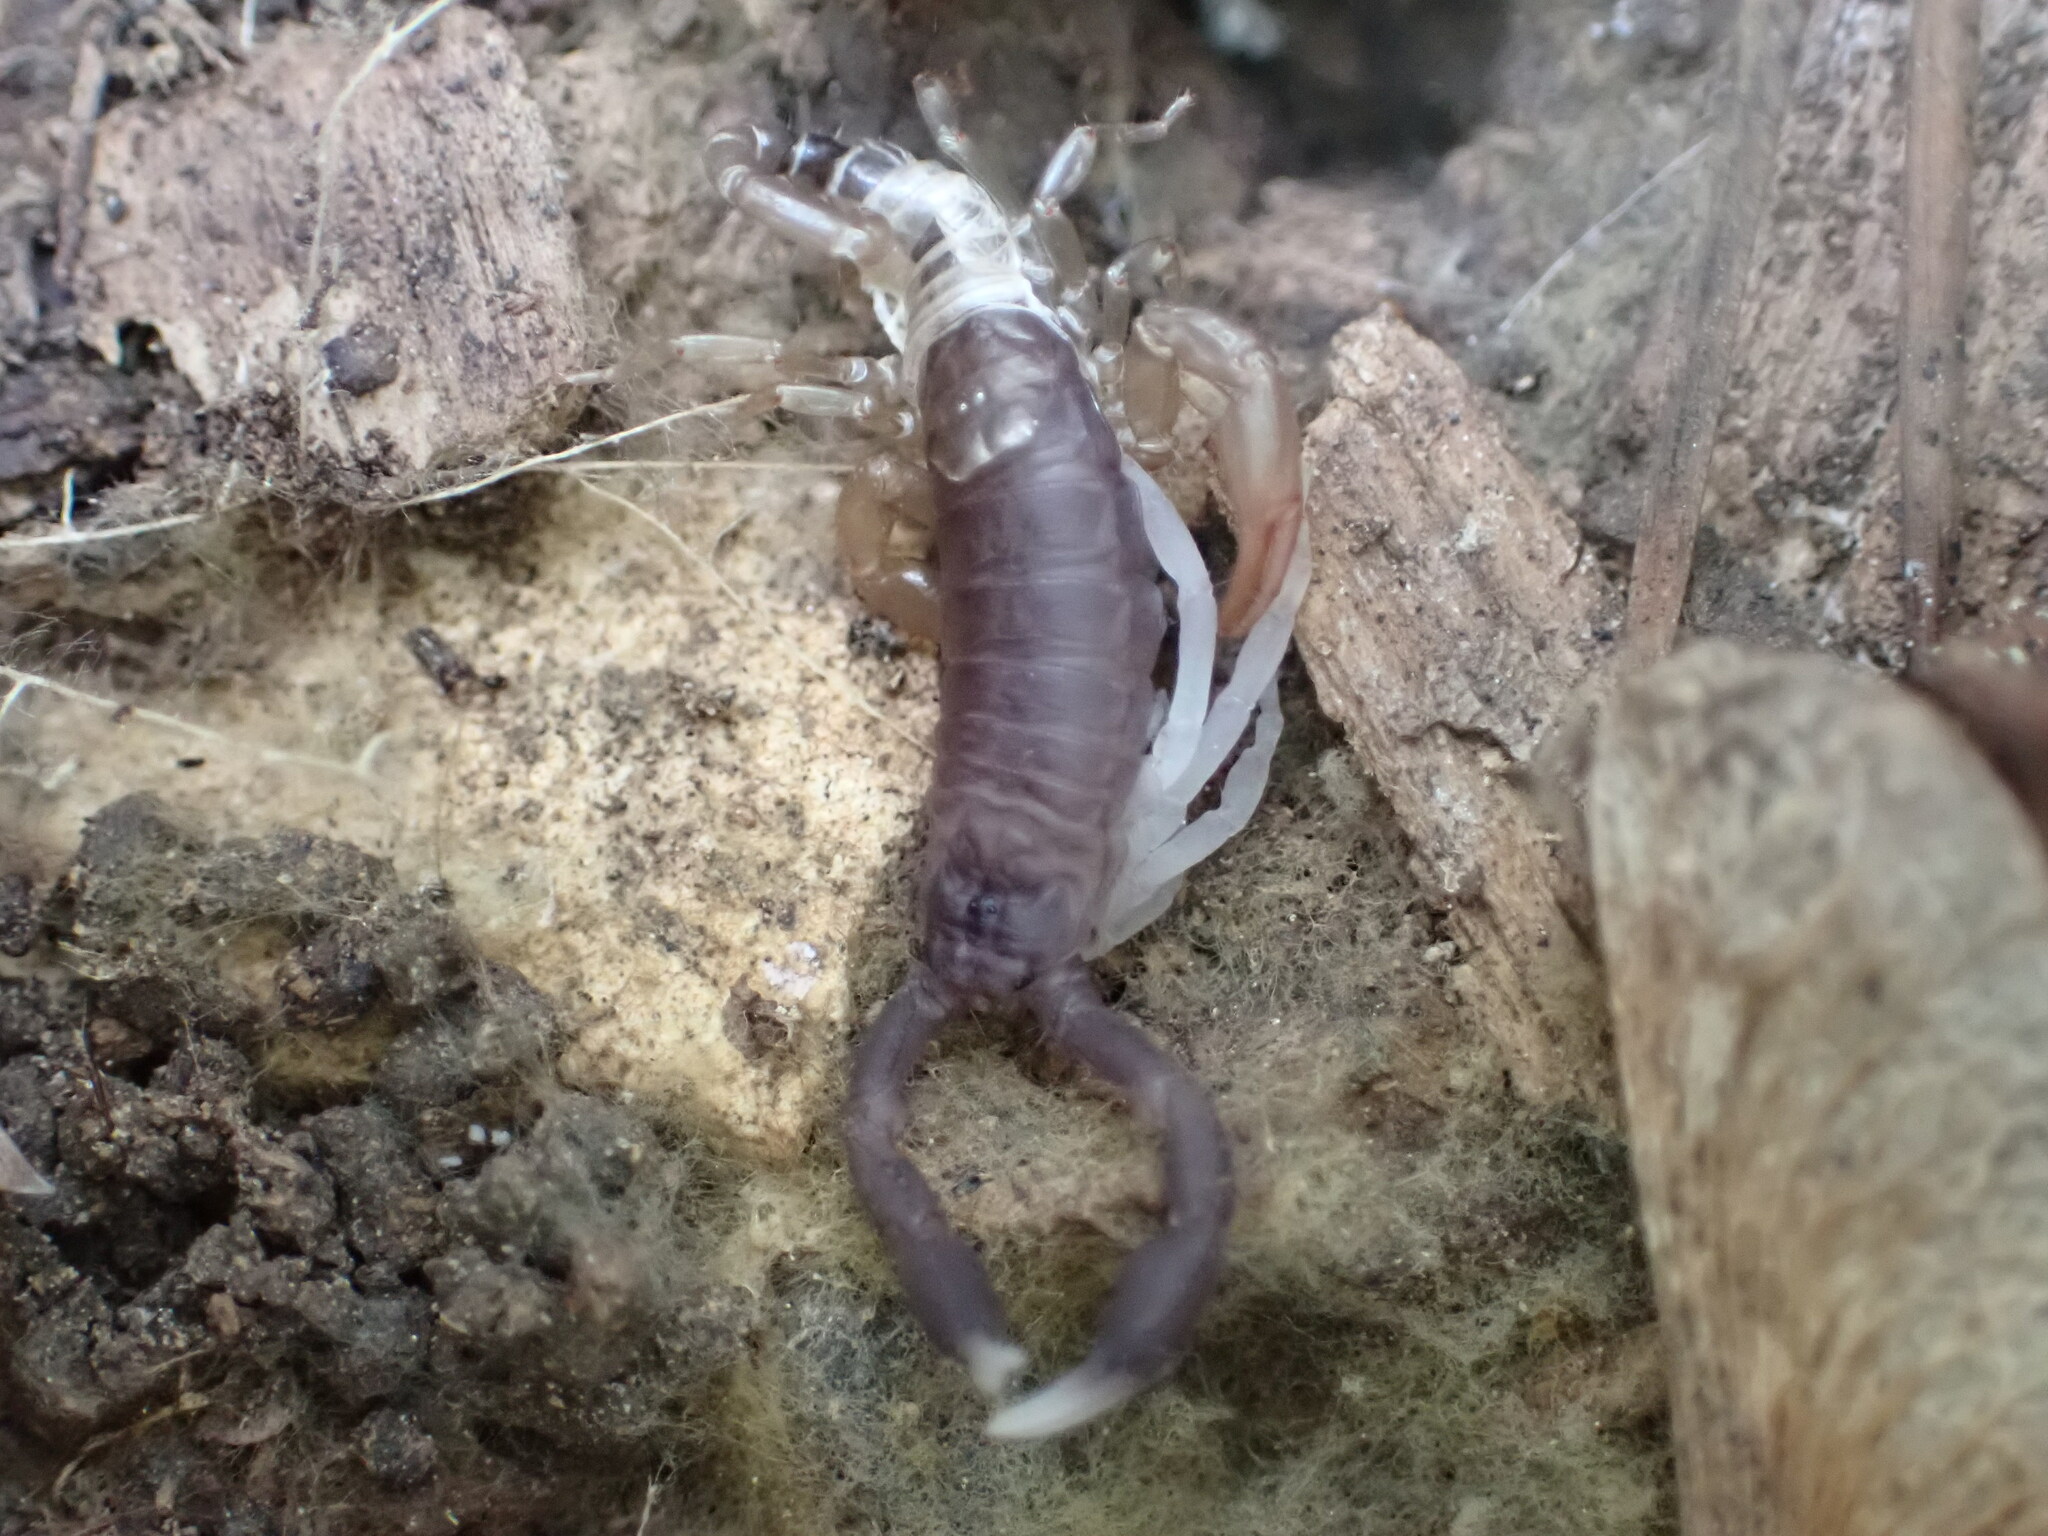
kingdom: Animalia
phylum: Arthropoda
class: Arachnida
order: Scorpiones
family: Euscorpiidae
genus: Euscorpius
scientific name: Euscorpius niciensis
